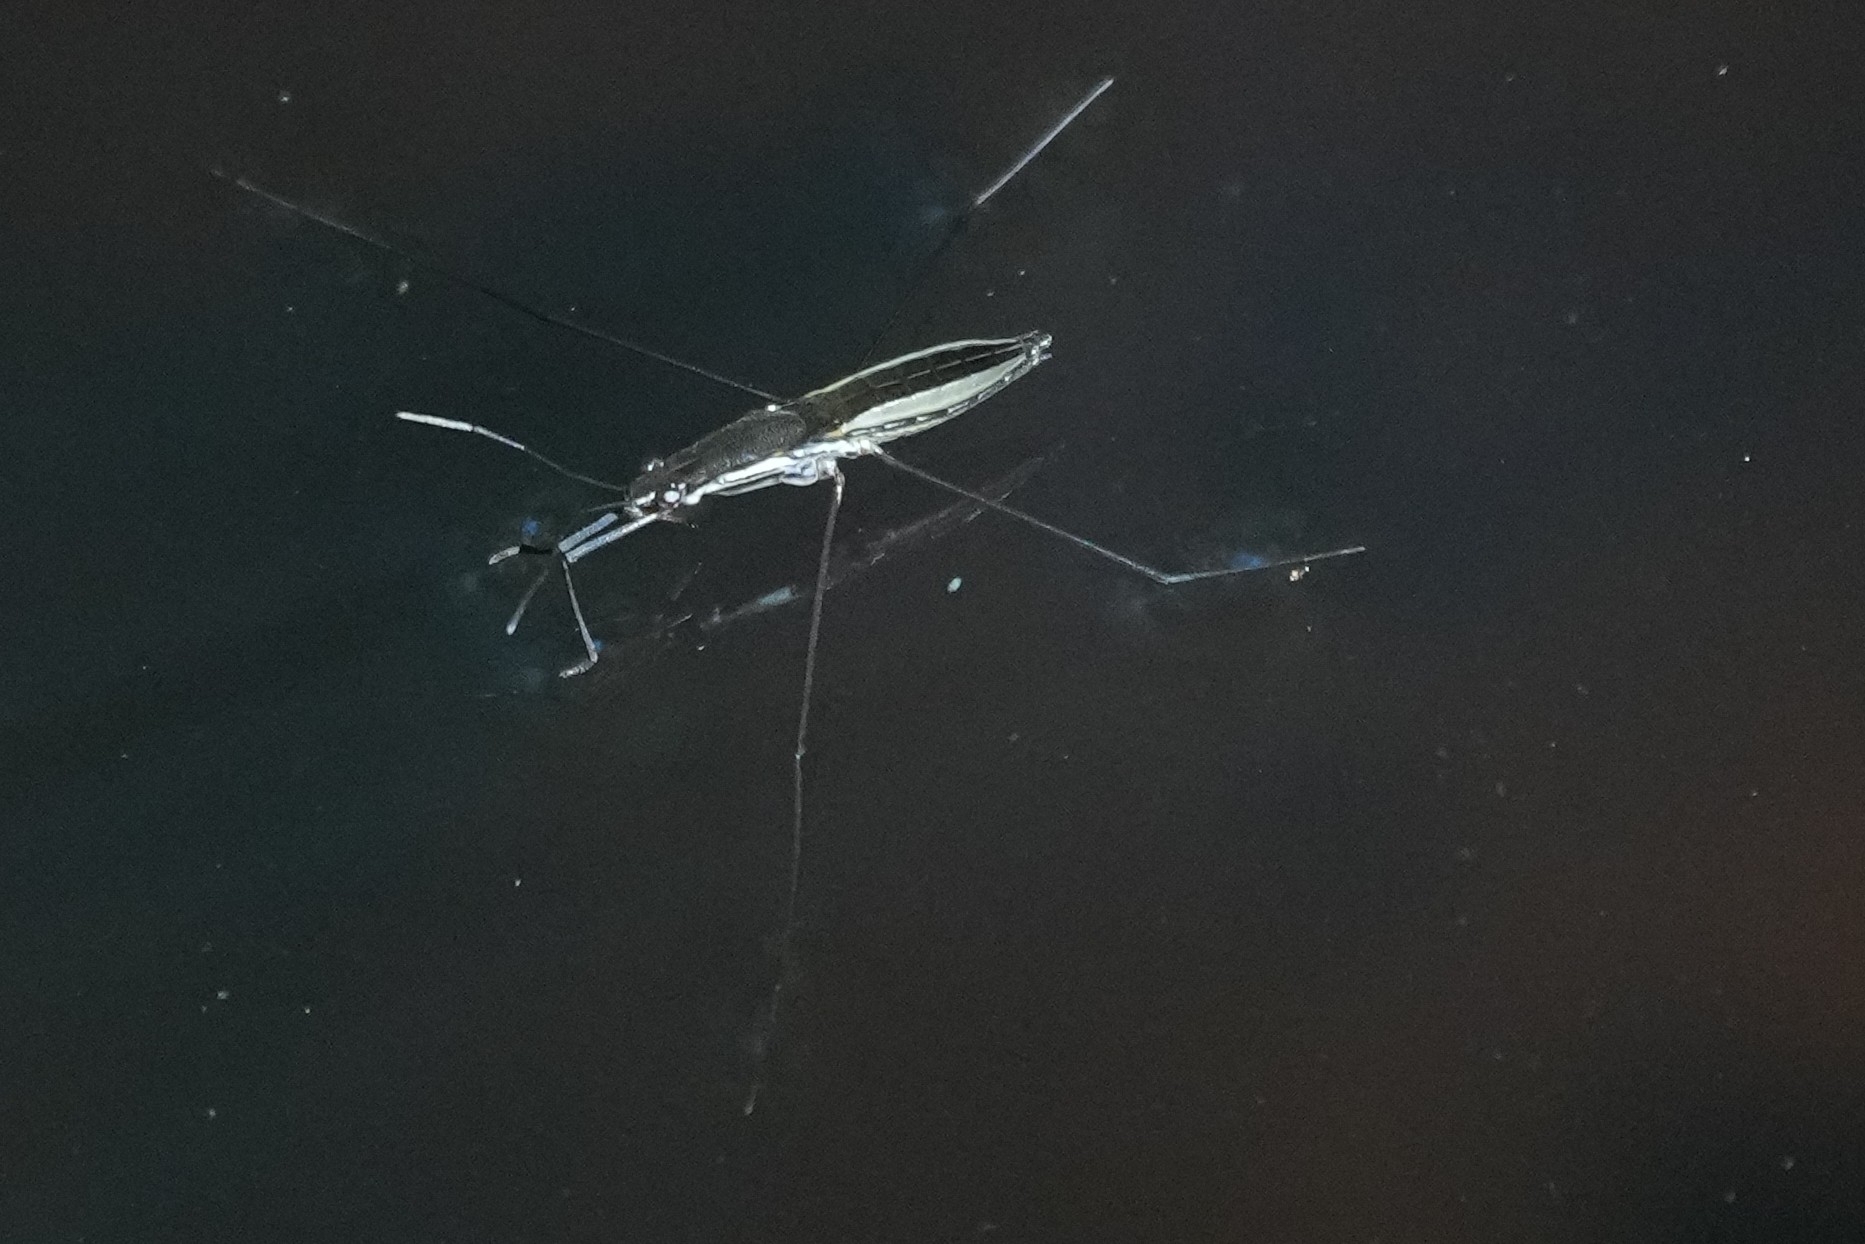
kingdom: Animalia
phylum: Arthropoda
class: Insecta
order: Hemiptera
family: Gerridae
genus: Limnoporus
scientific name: Limnoporus canaliculatus
